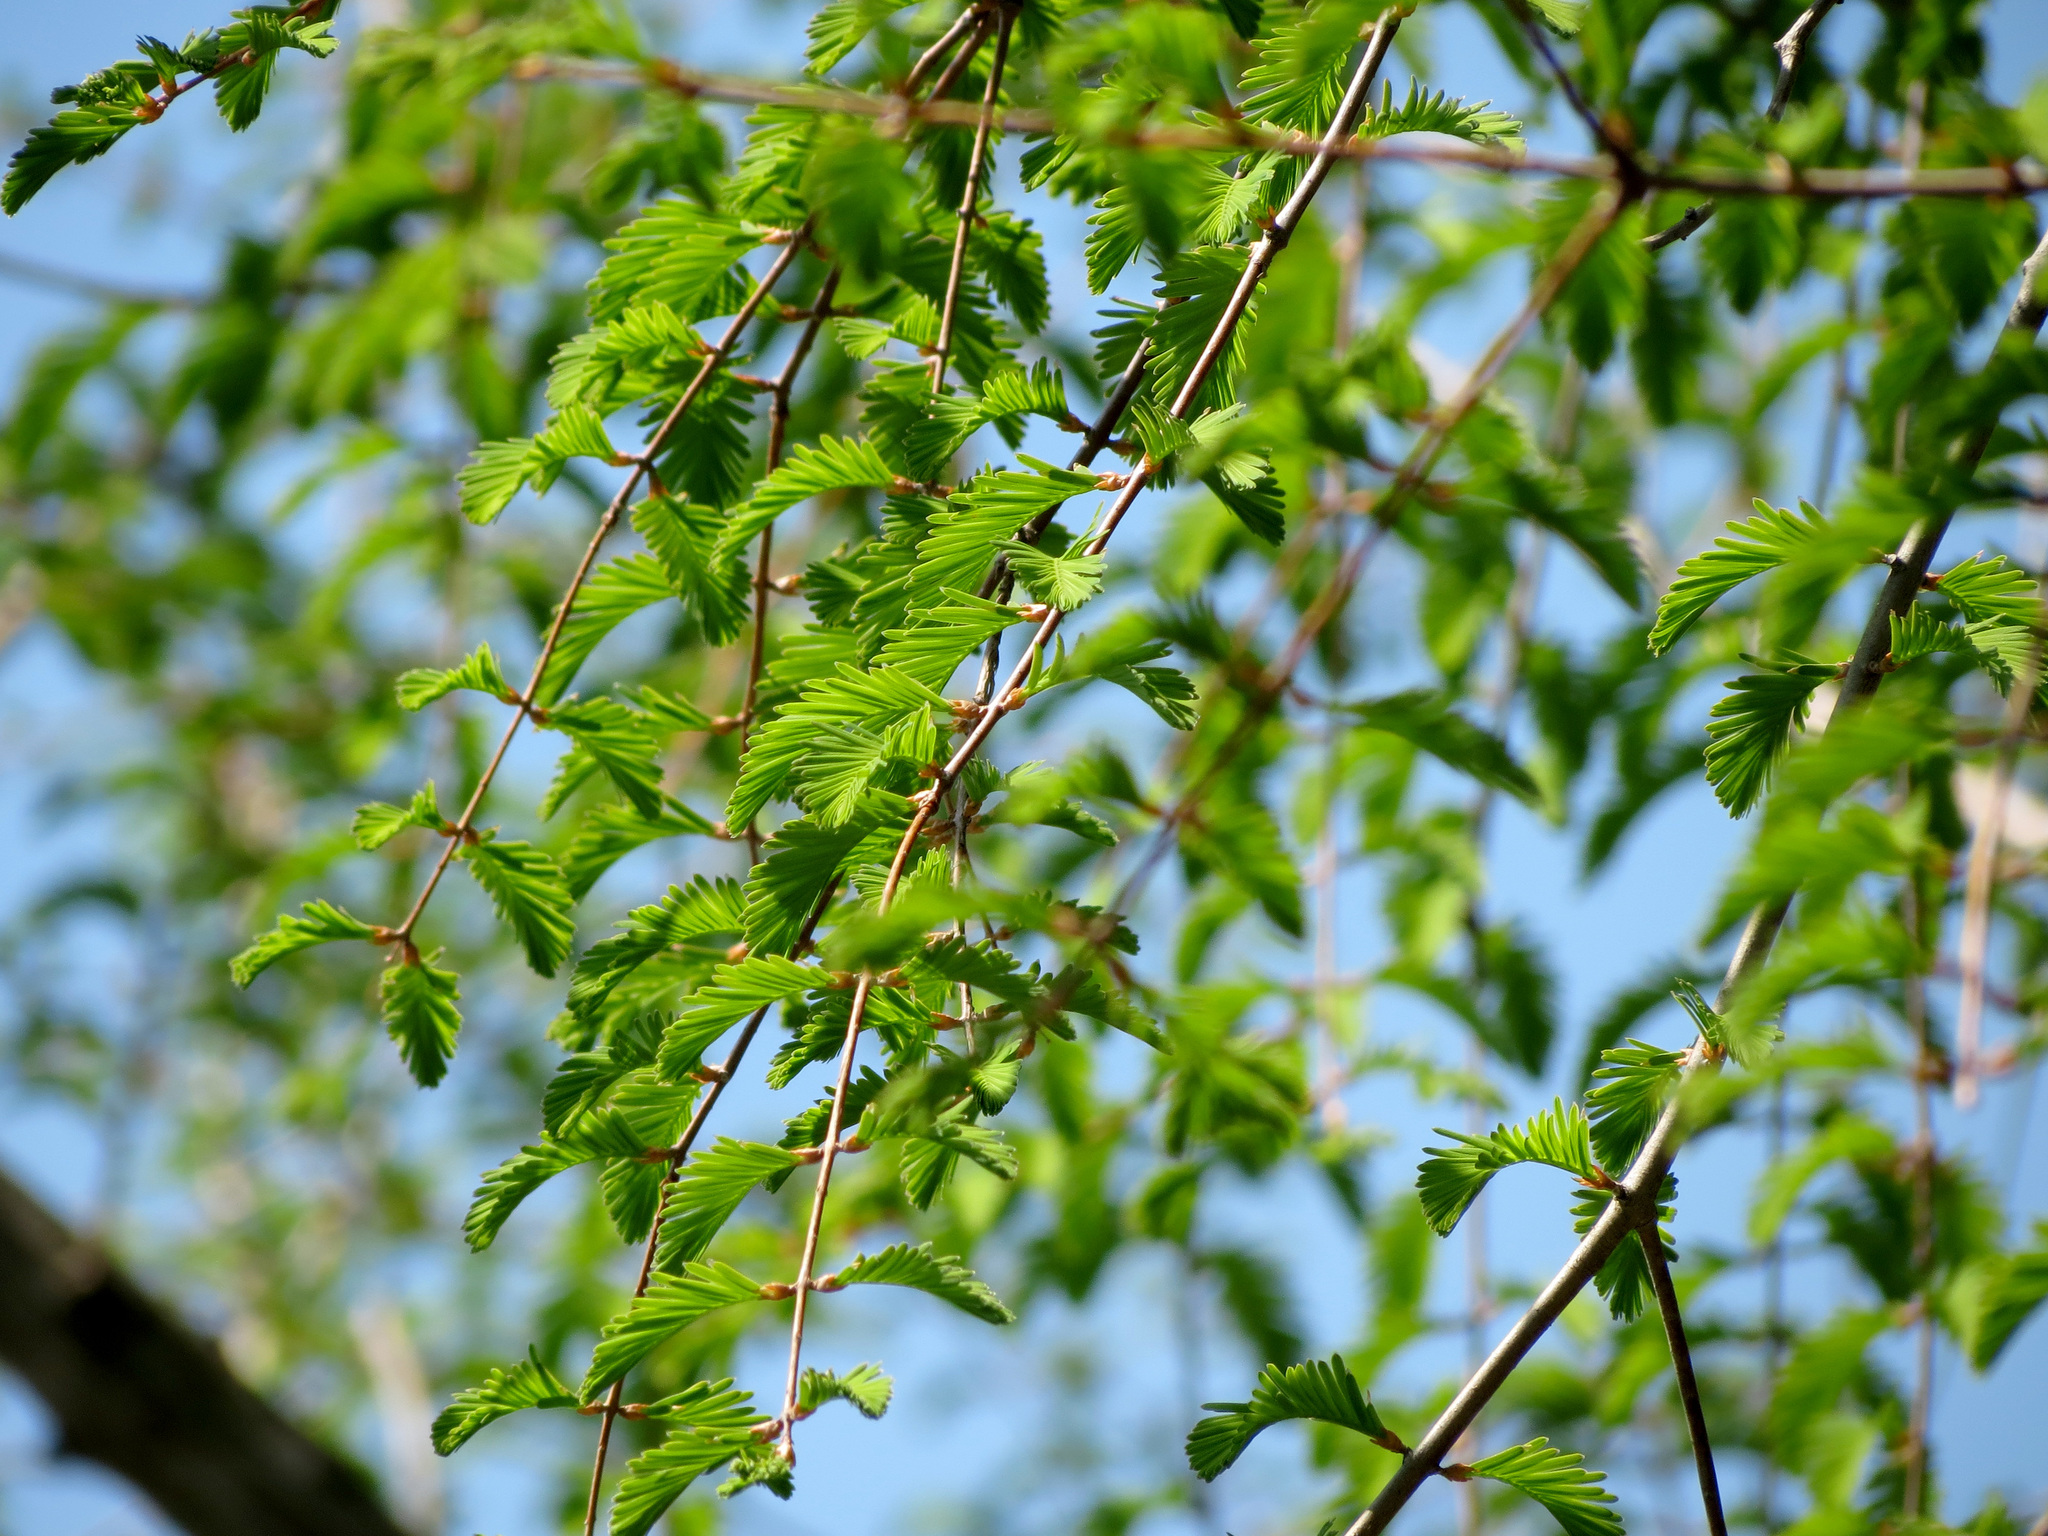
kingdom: Plantae
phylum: Tracheophyta
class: Pinopsida
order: Pinales
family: Cupressaceae
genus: Taxodium
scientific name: Taxodium distichum
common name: Bald cypress
